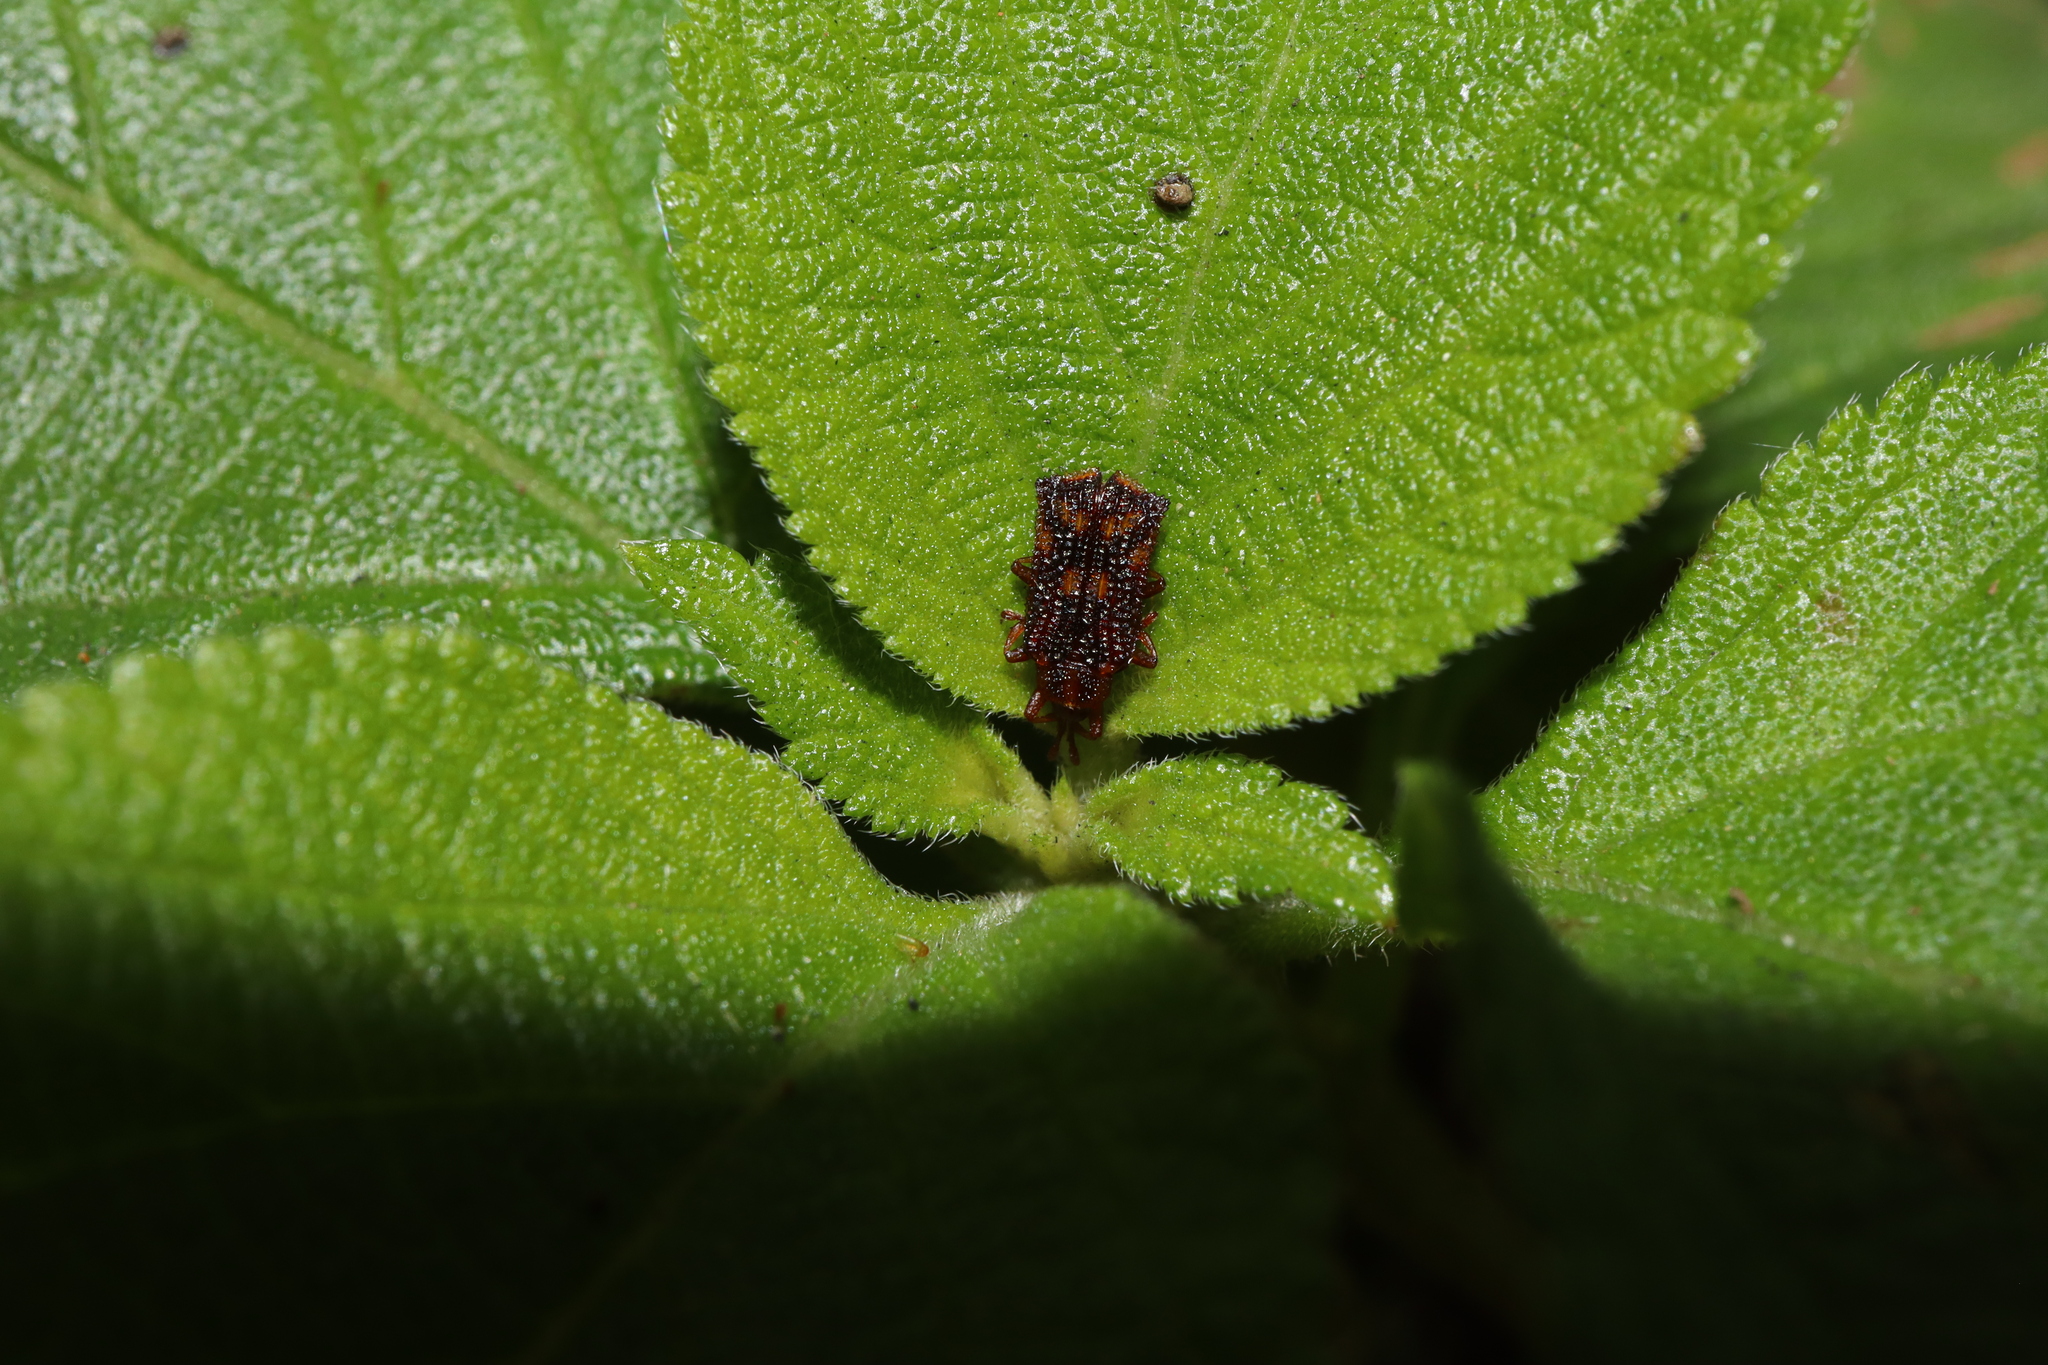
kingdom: Animalia
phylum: Arthropoda
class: Insecta
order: Coleoptera
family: Chrysomelidae
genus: Uroplata
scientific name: Uroplata girardi
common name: Lantana leafminer
